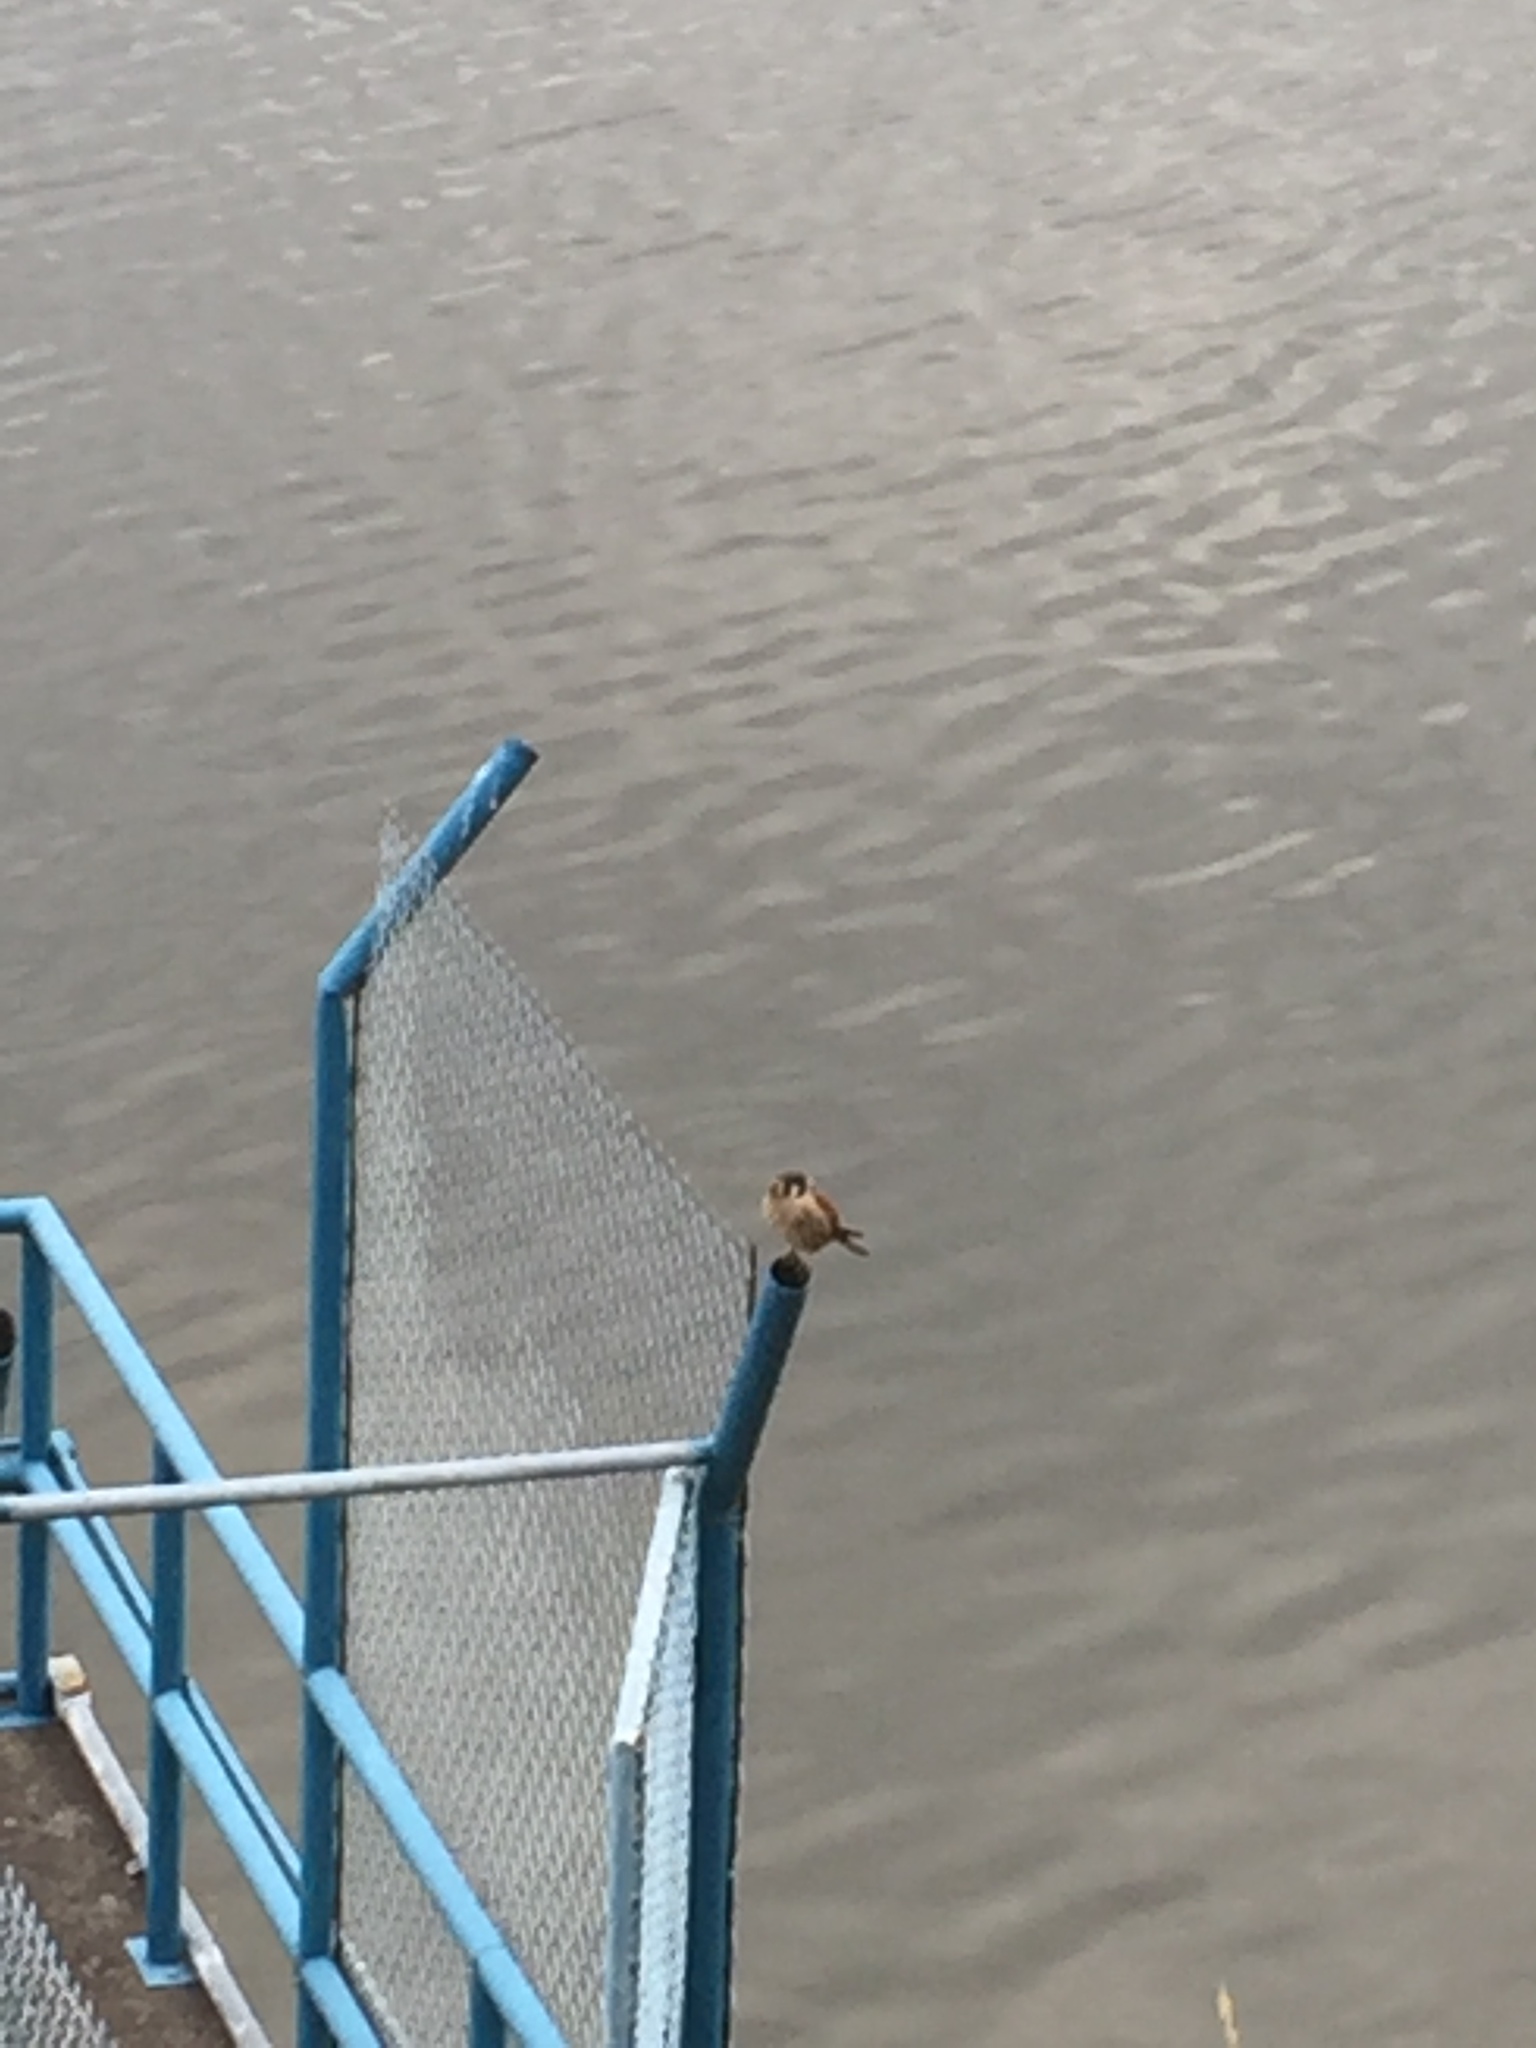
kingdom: Animalia
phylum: Chordata
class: Aves
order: Falconiformes
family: Falconidae
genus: Falco
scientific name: Falco sparverius
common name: American kestrel
